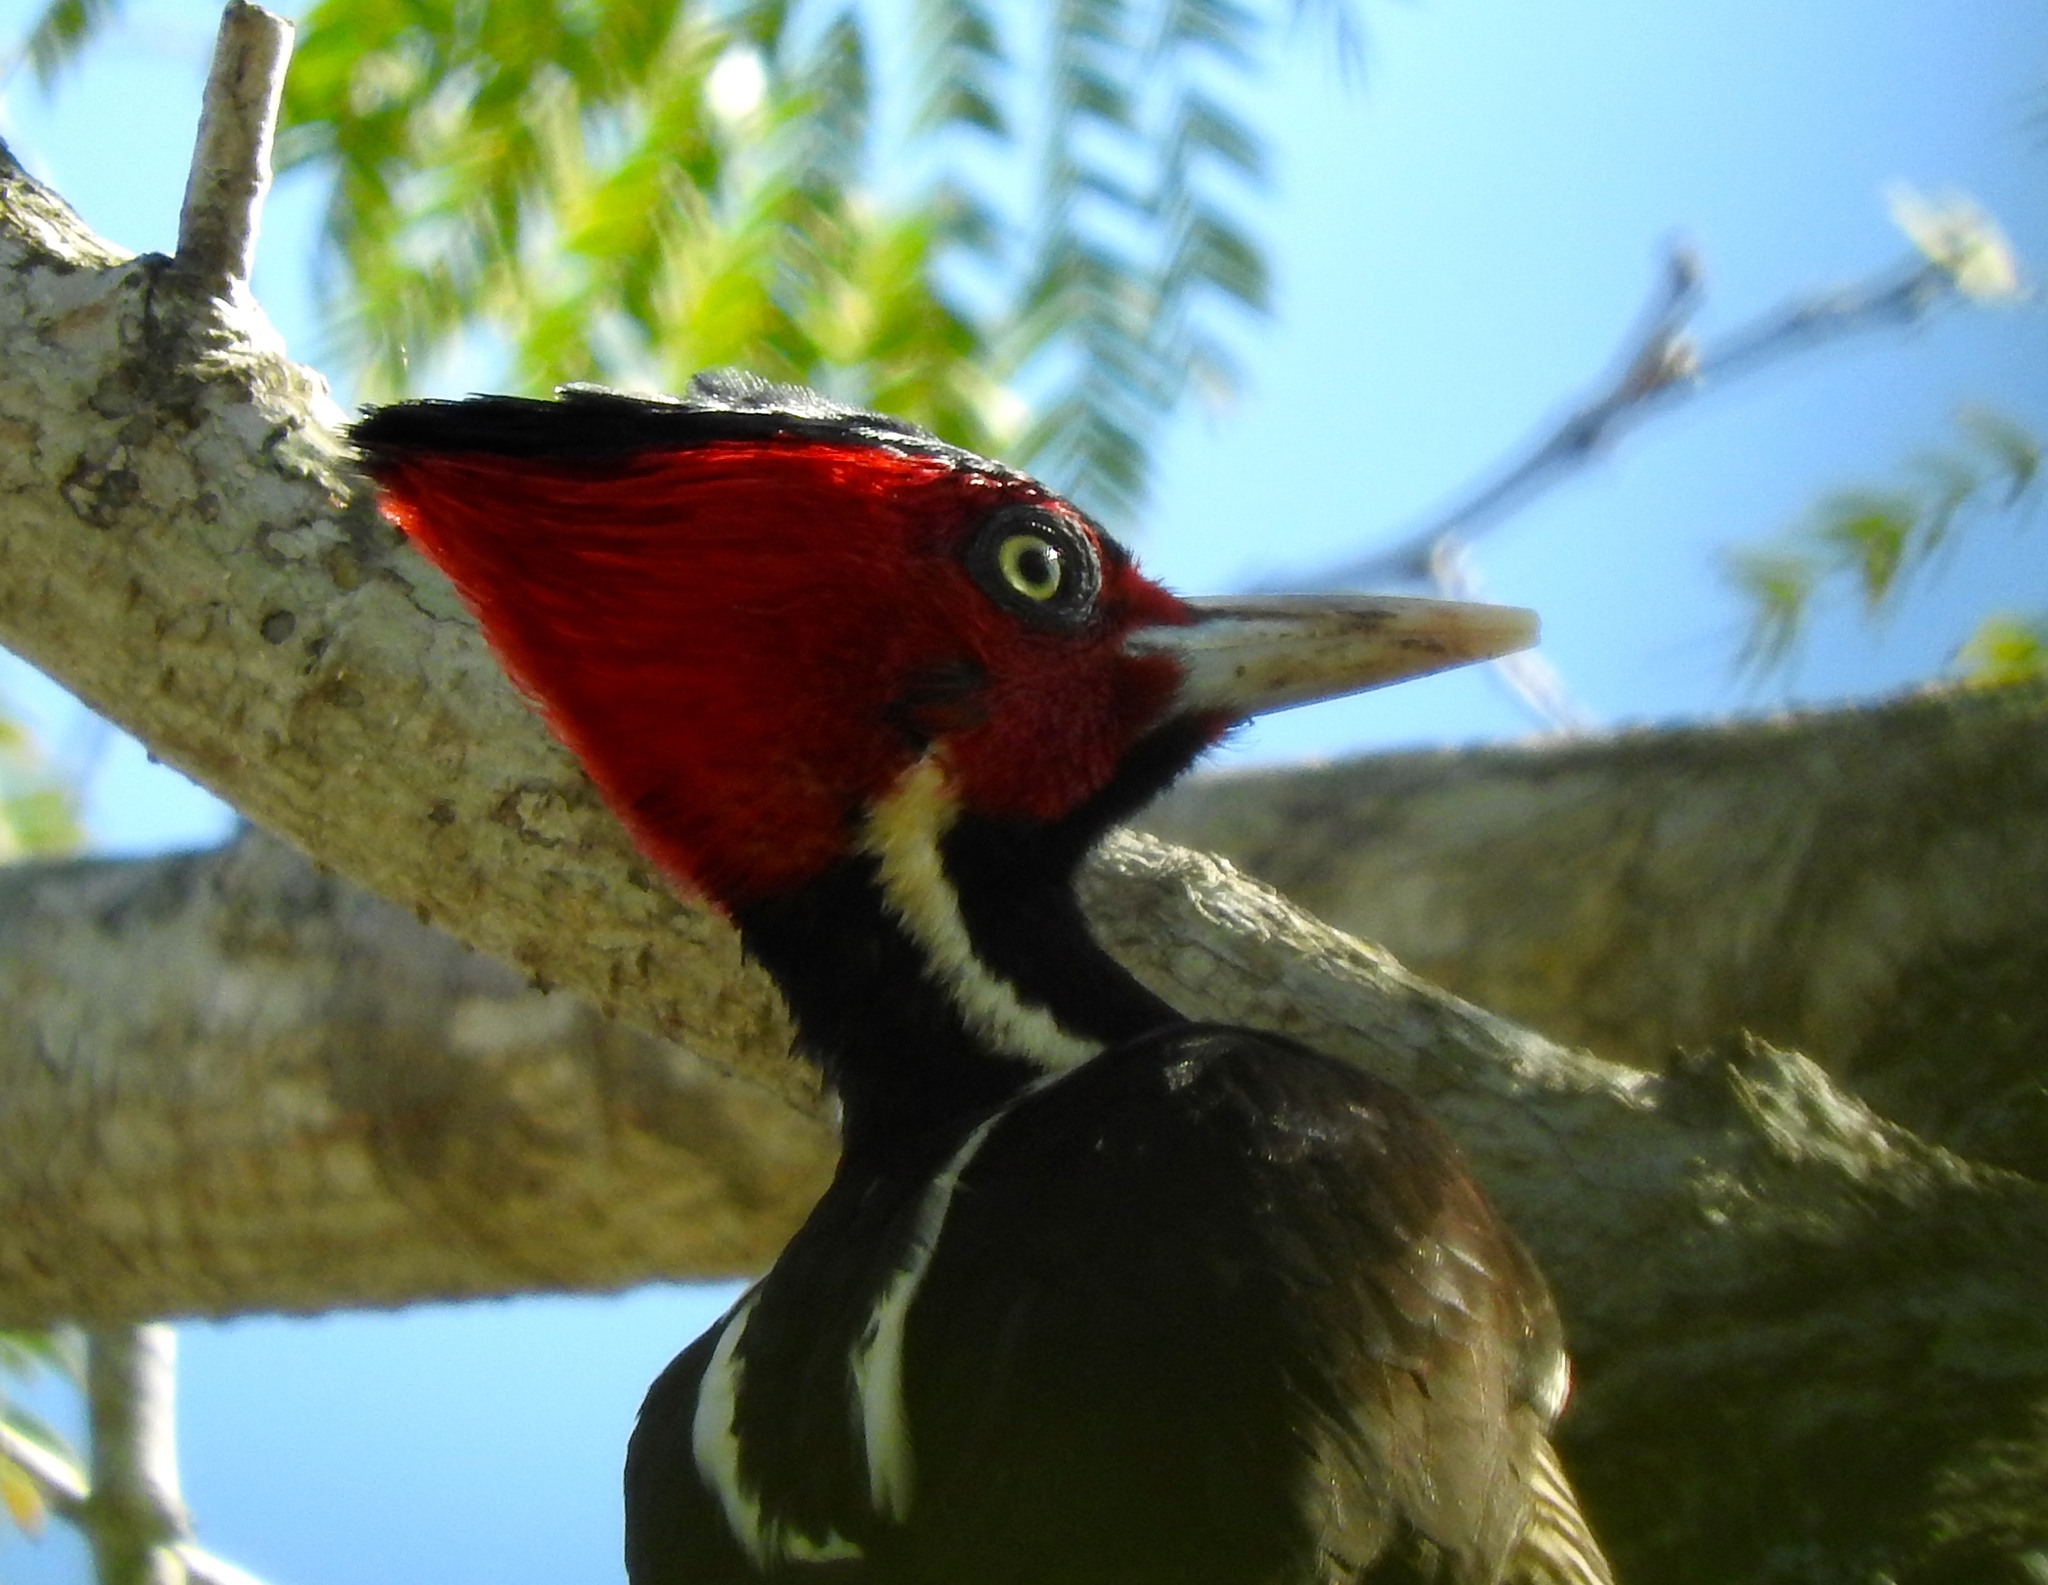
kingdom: Animalia
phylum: Chordata
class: Aves
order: Piciformes
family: Picidae
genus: Campephilus
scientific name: Campephilus guatemalensis
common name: Pale-billed woodpecker
